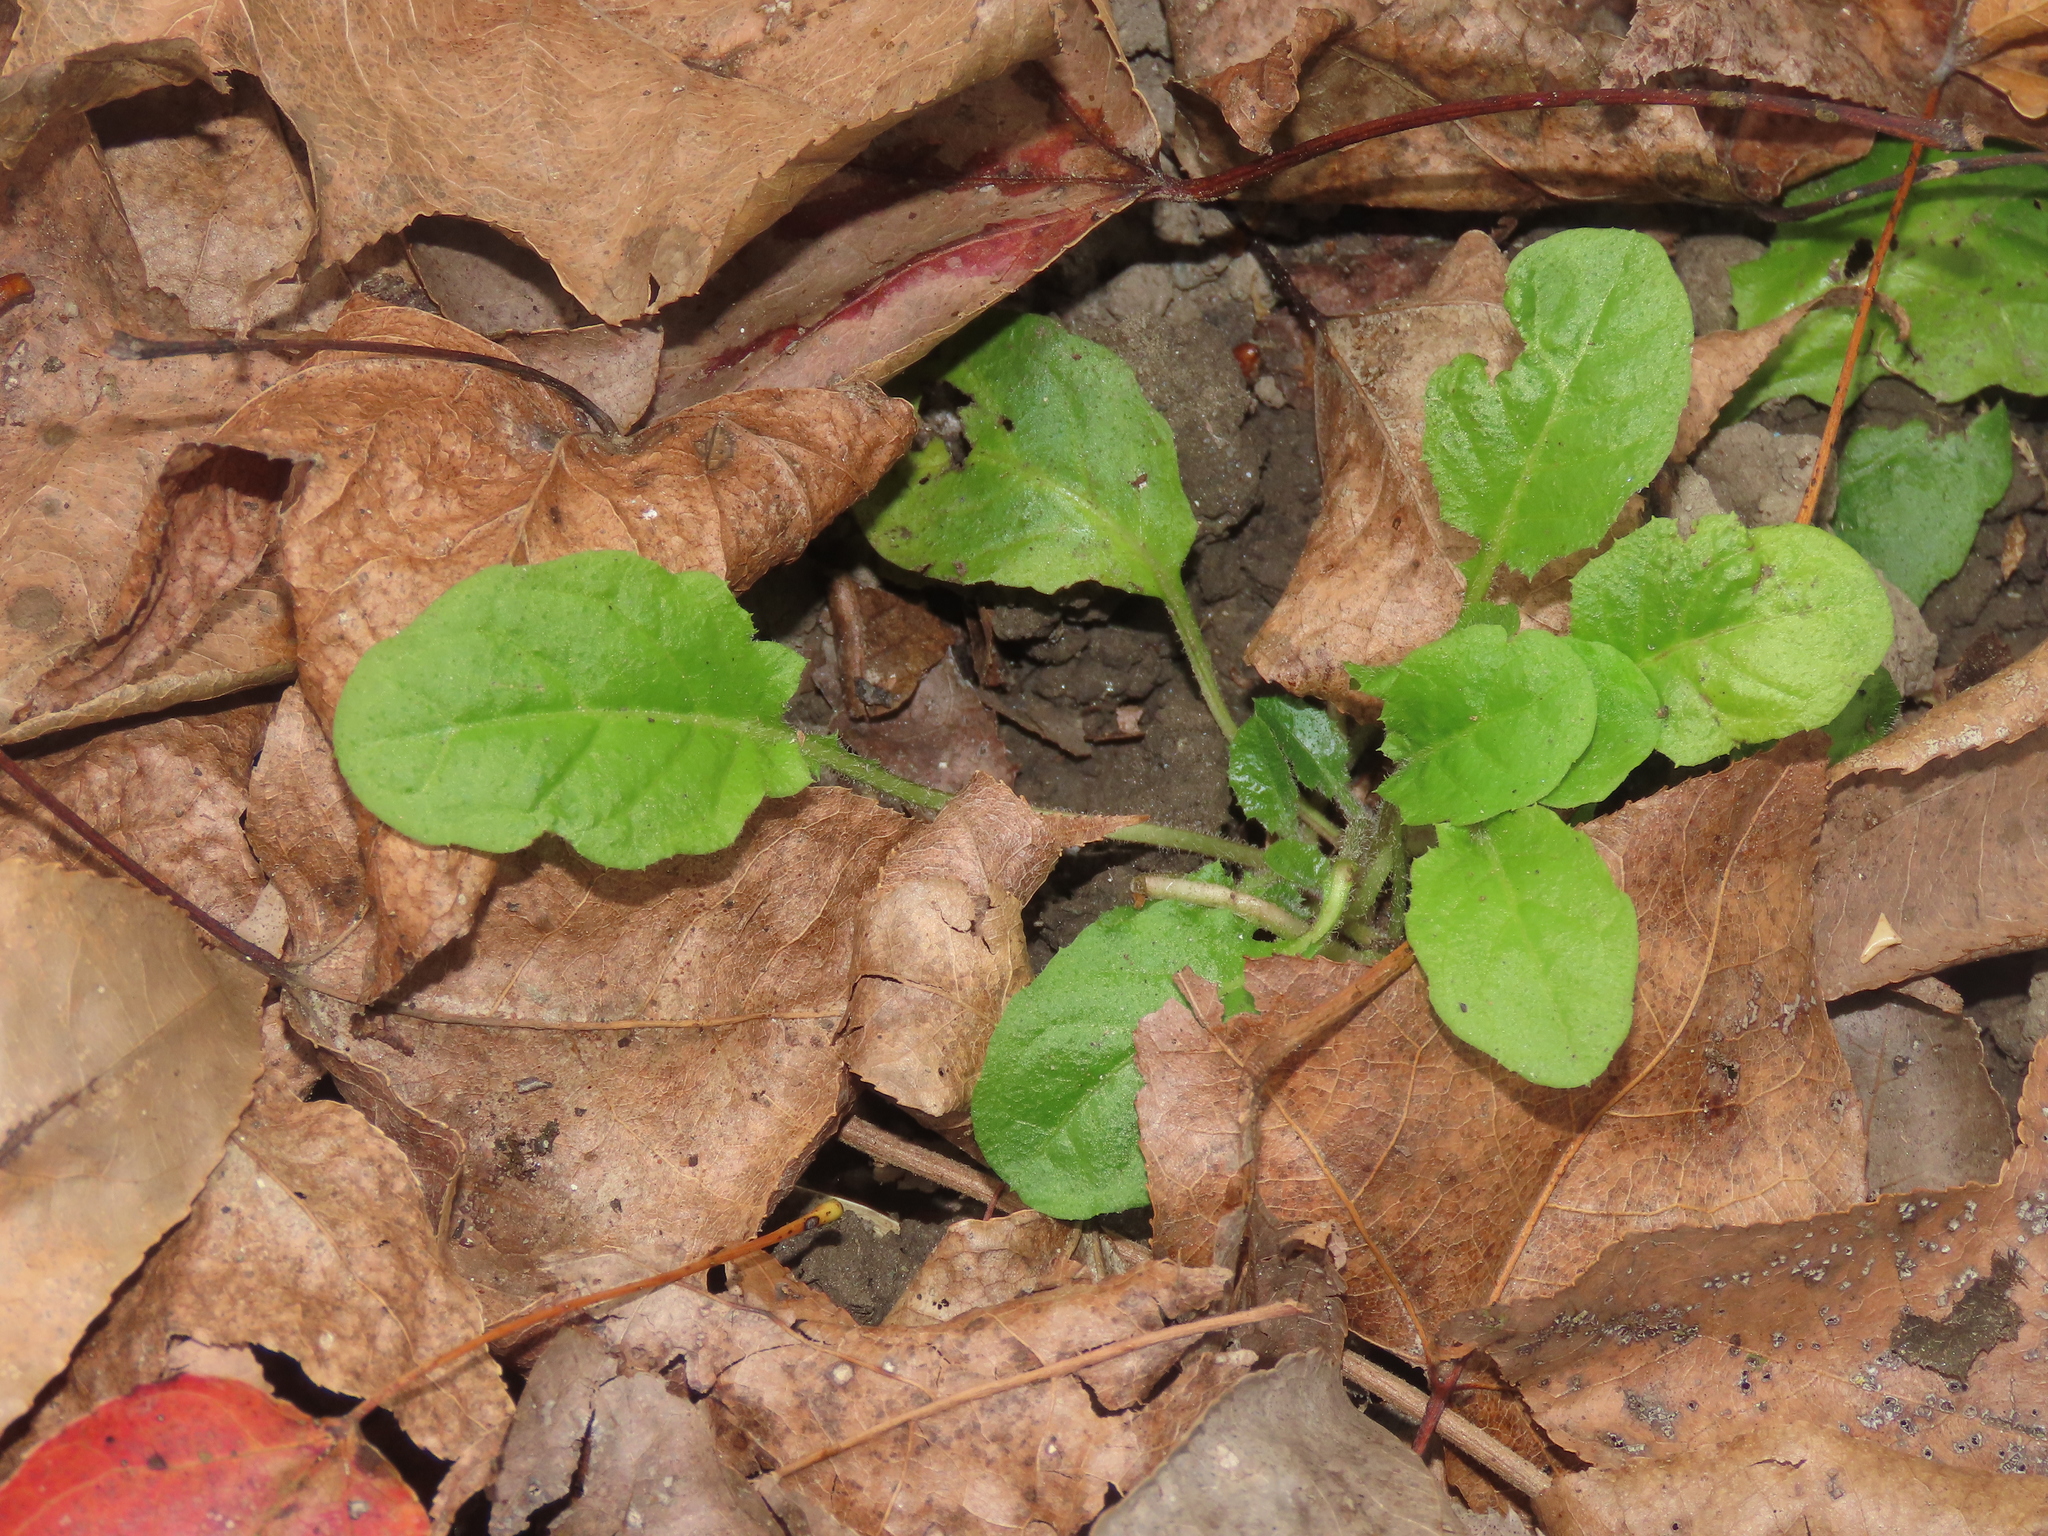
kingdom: Plantae
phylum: Tracheophyta
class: Magnoliopsida
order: Asterales
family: Asteraceae
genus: Youngia
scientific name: Youngia japonica
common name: Oriental false hawksbeard
